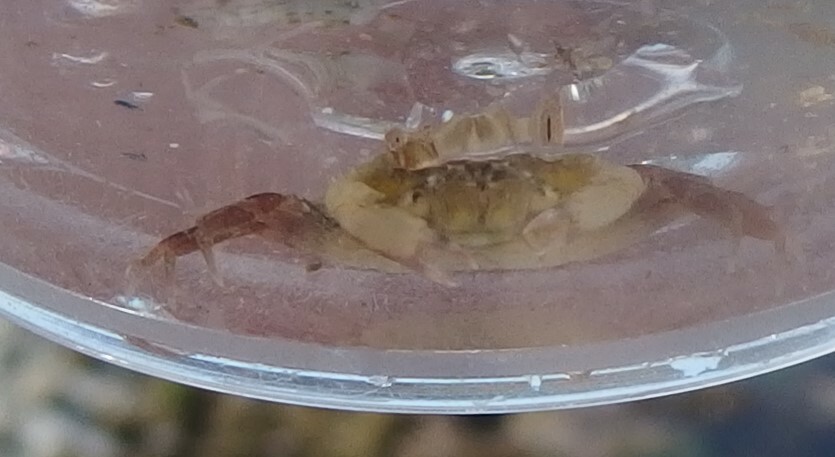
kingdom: Animalia
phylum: Arthropoda
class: Malacostraca
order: Decapoda
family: Carcinidae
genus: Carcinus
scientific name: Carcinus maenas
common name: European green crab
